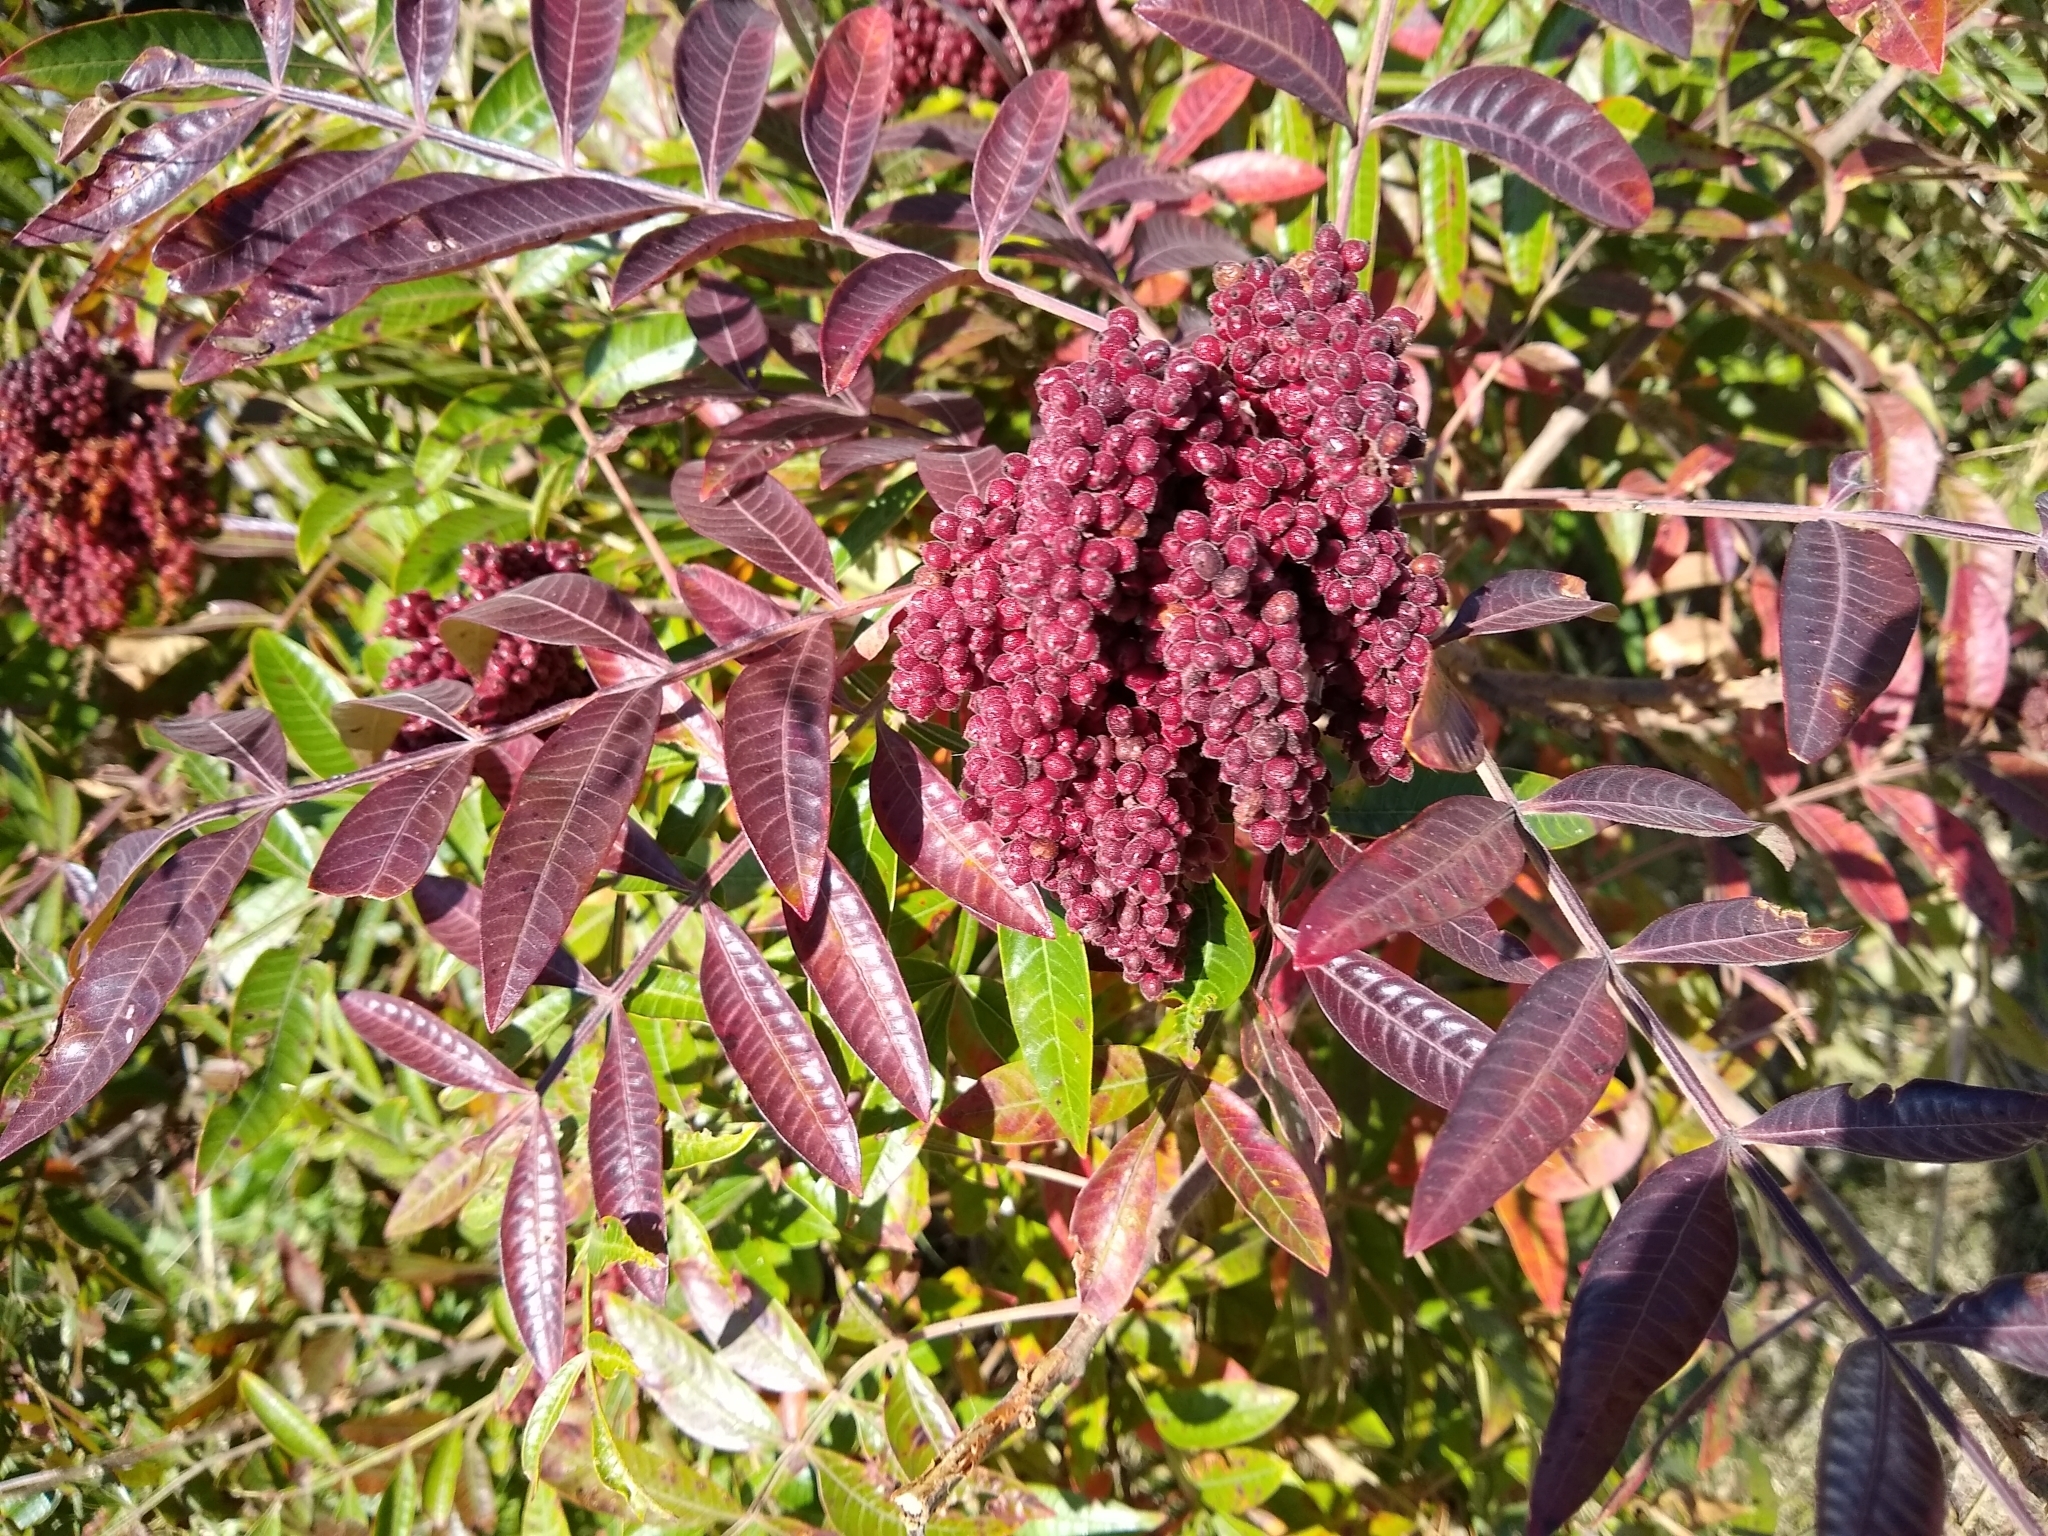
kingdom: Plantae
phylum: Tracheophyta
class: Magnoliopsida
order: Sapindales
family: Anacardiaceae
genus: Rhus
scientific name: Rhus copallina
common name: Shining sumac
